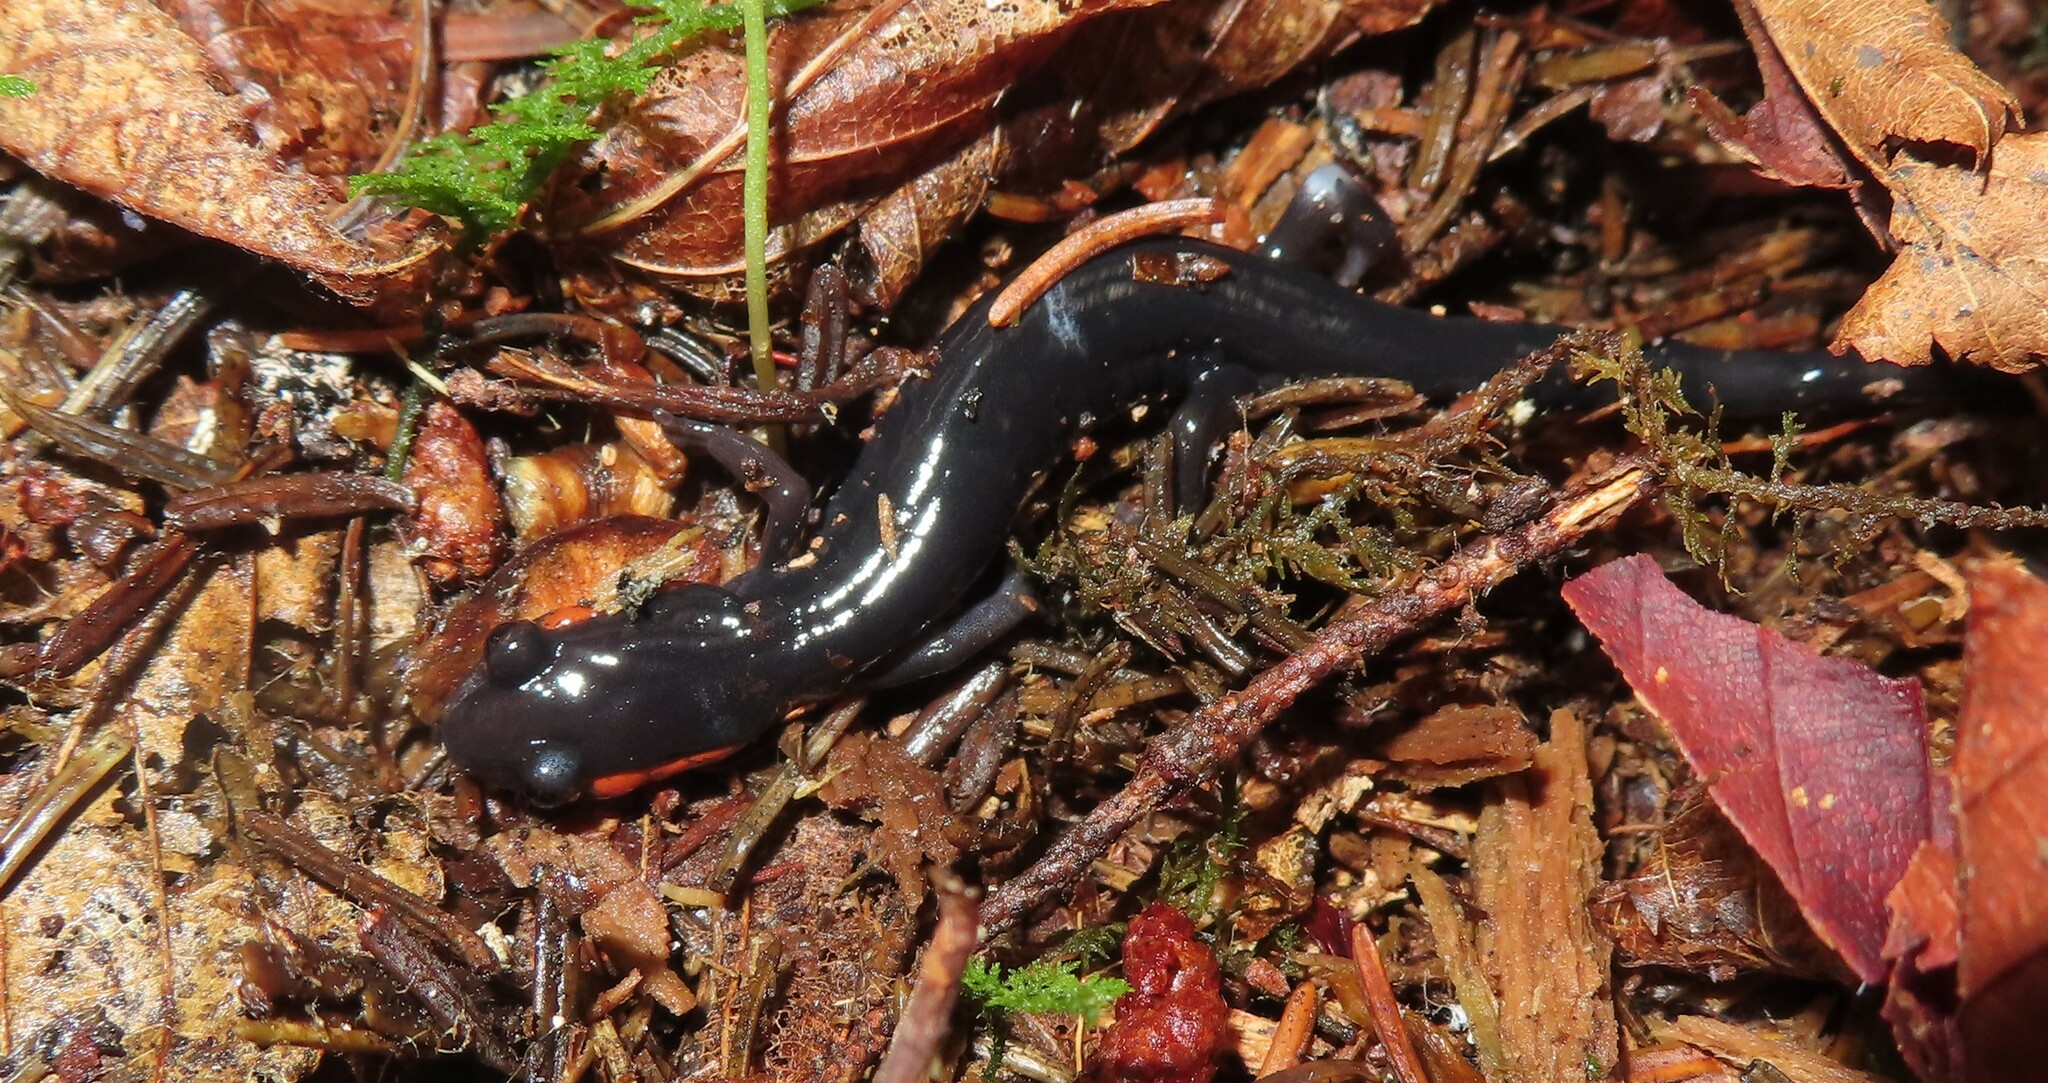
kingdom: Animalia
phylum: Chordata
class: Amphibia
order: Caudata
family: Plethodontidae
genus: Plethodon
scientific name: Plethodon jordani
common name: Red-cheeked salamander
